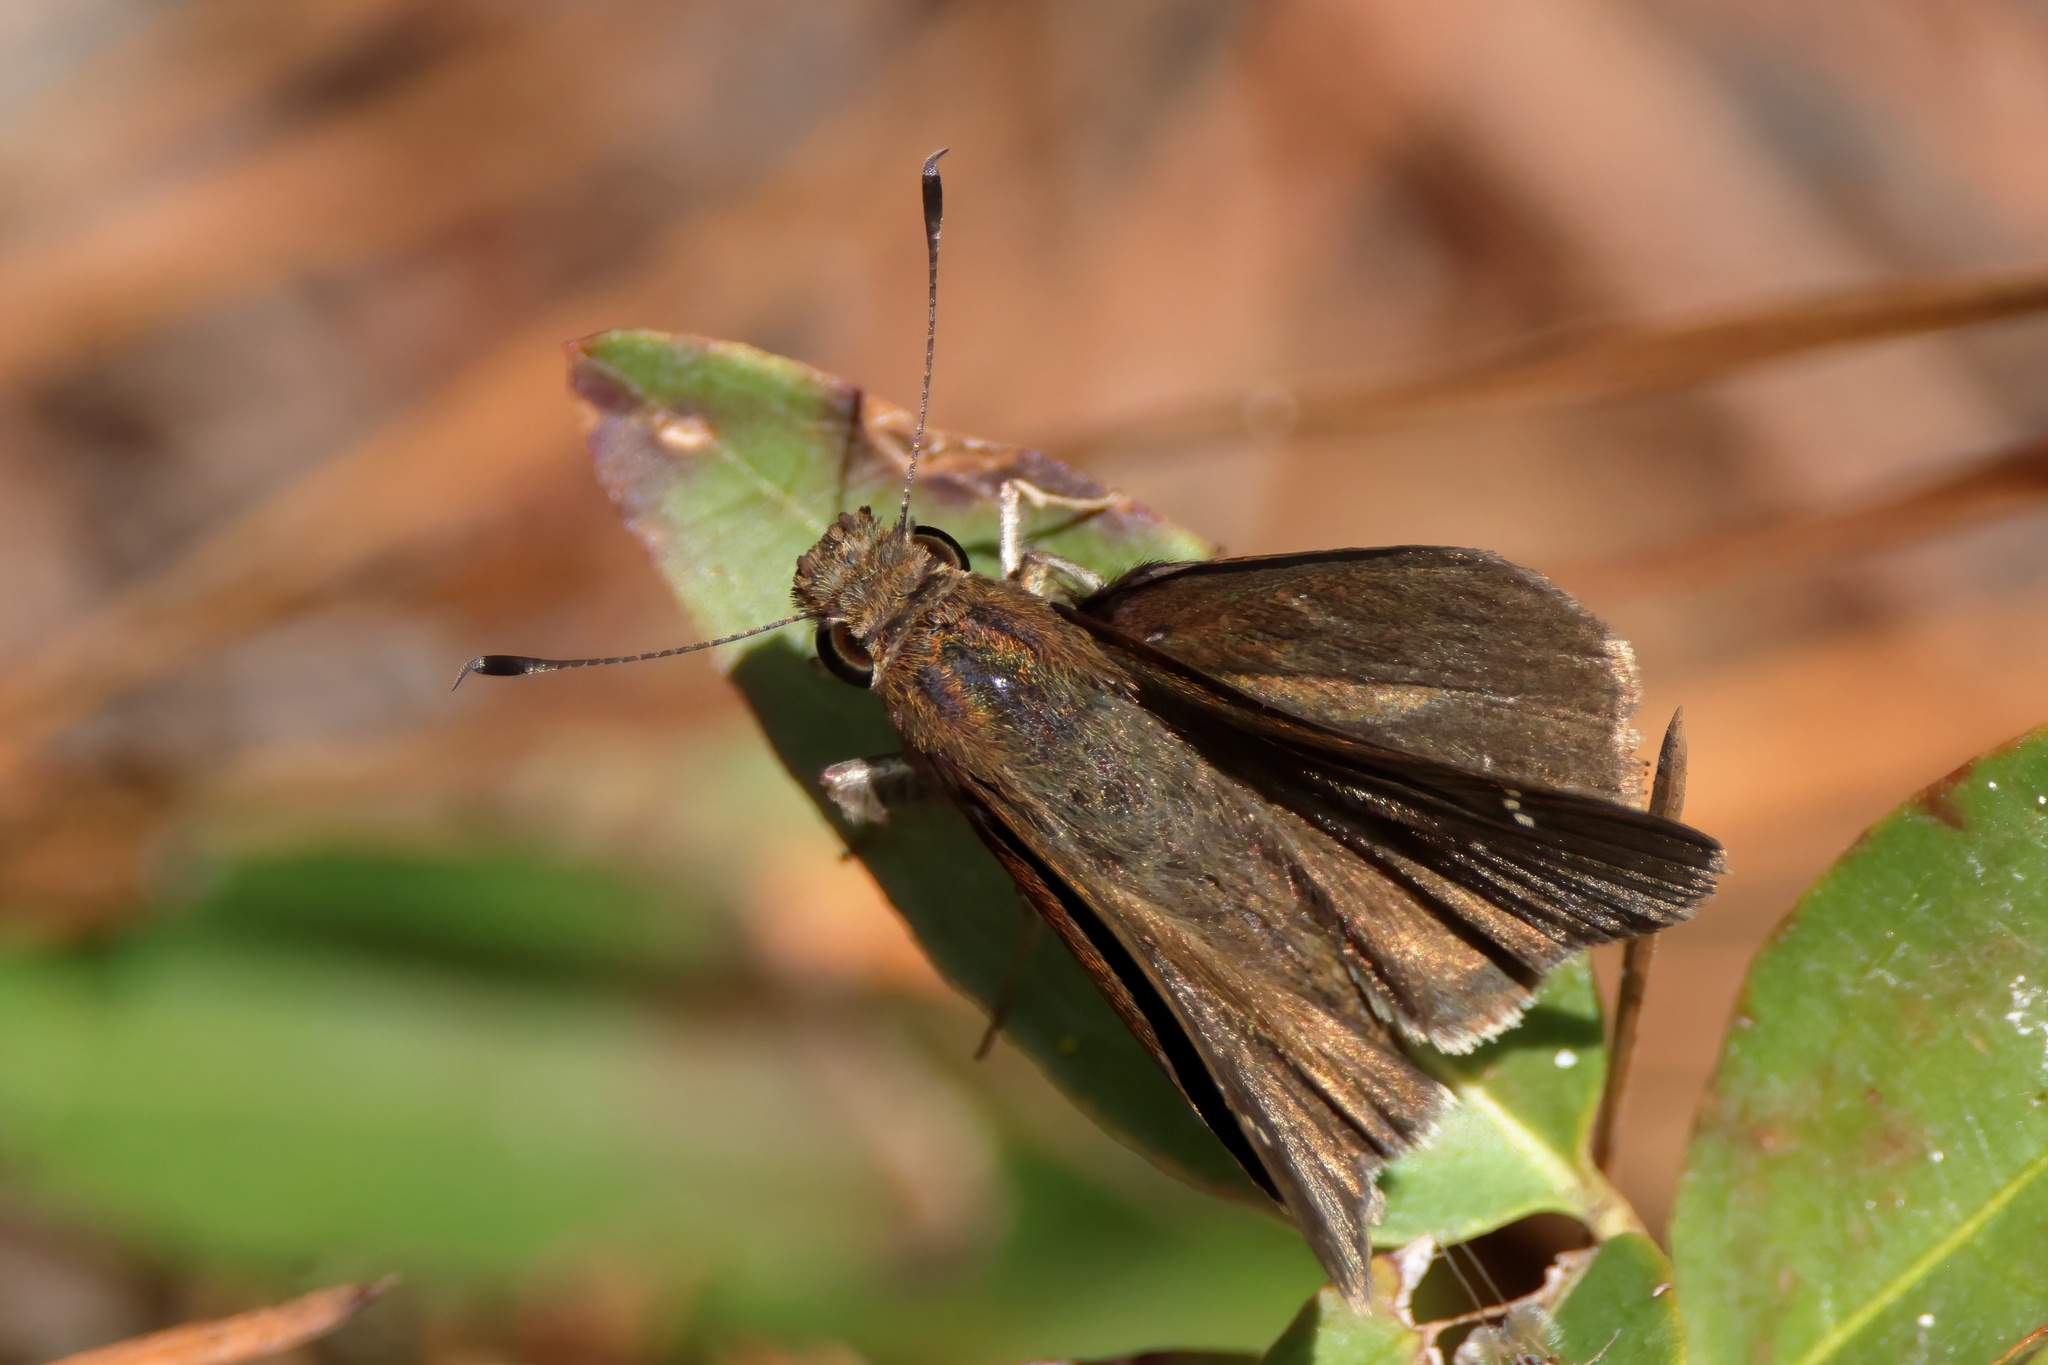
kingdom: Animalia
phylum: Arthropoda
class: Insecta
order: Lepidoptera
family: Hesperiidae
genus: Lerema
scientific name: Lerema accius
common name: Clouded skipper
